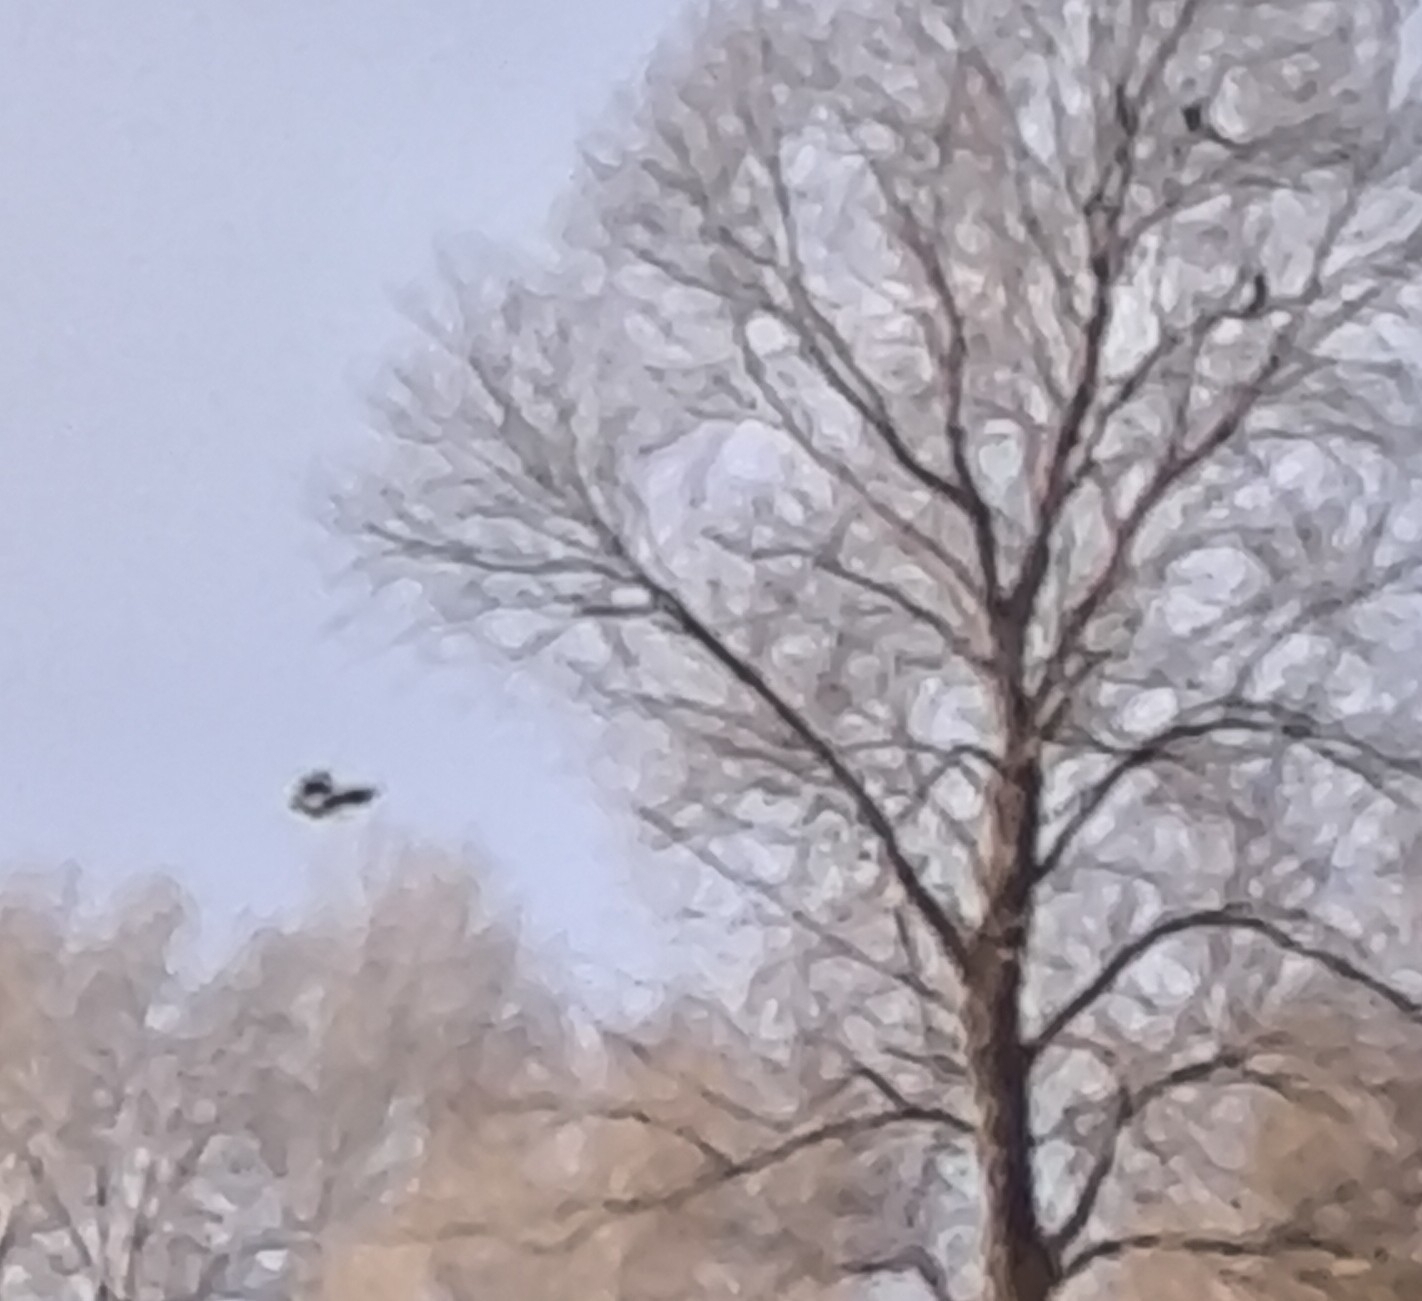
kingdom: Animalia
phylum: Chordata
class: Aves
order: Passeriformes
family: Corvidae
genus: Pica
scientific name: Pica pica
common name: Eurasian magpie
